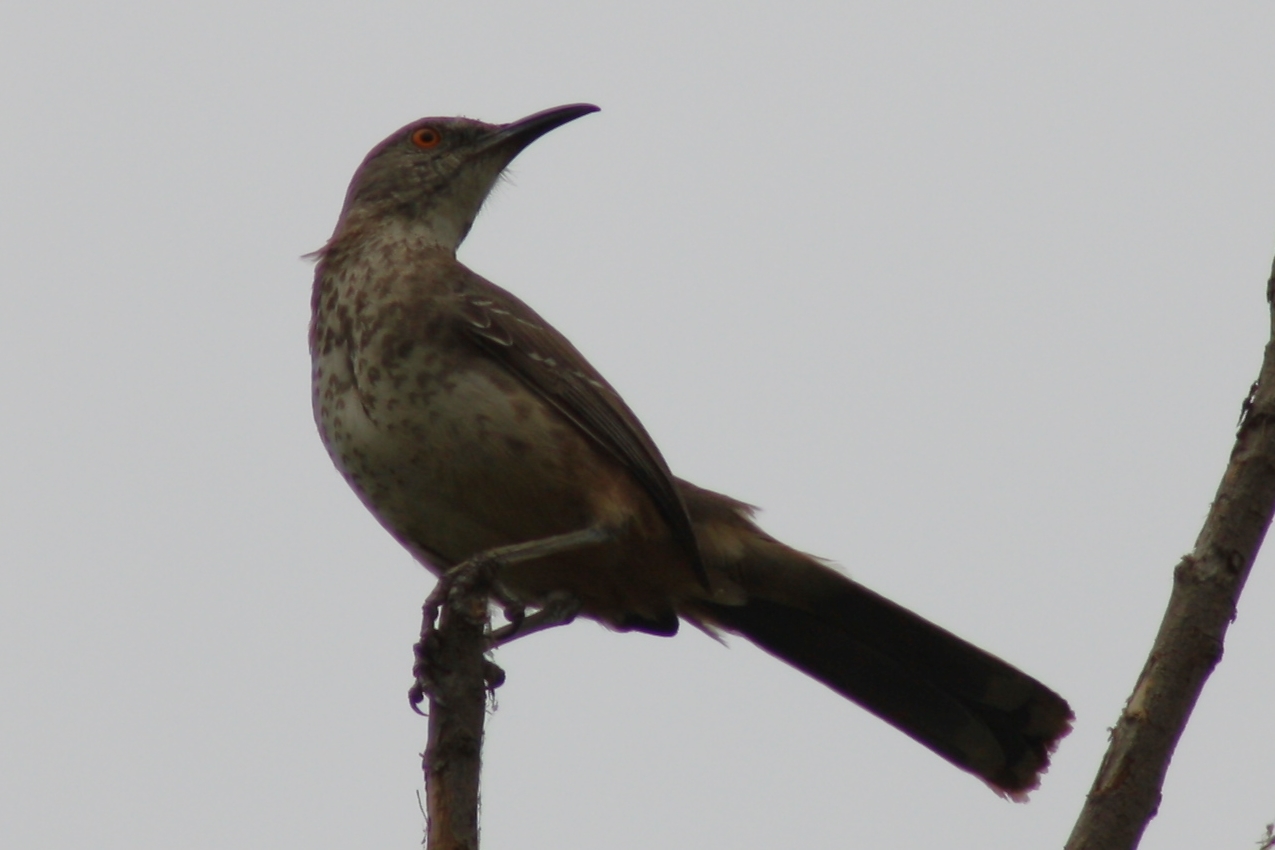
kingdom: Animalia
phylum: Chordata
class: Aves
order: Passeriformes
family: Mimidae
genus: Toxostoma
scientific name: Toxostoma curvirostre
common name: Curve-billed thrasher
